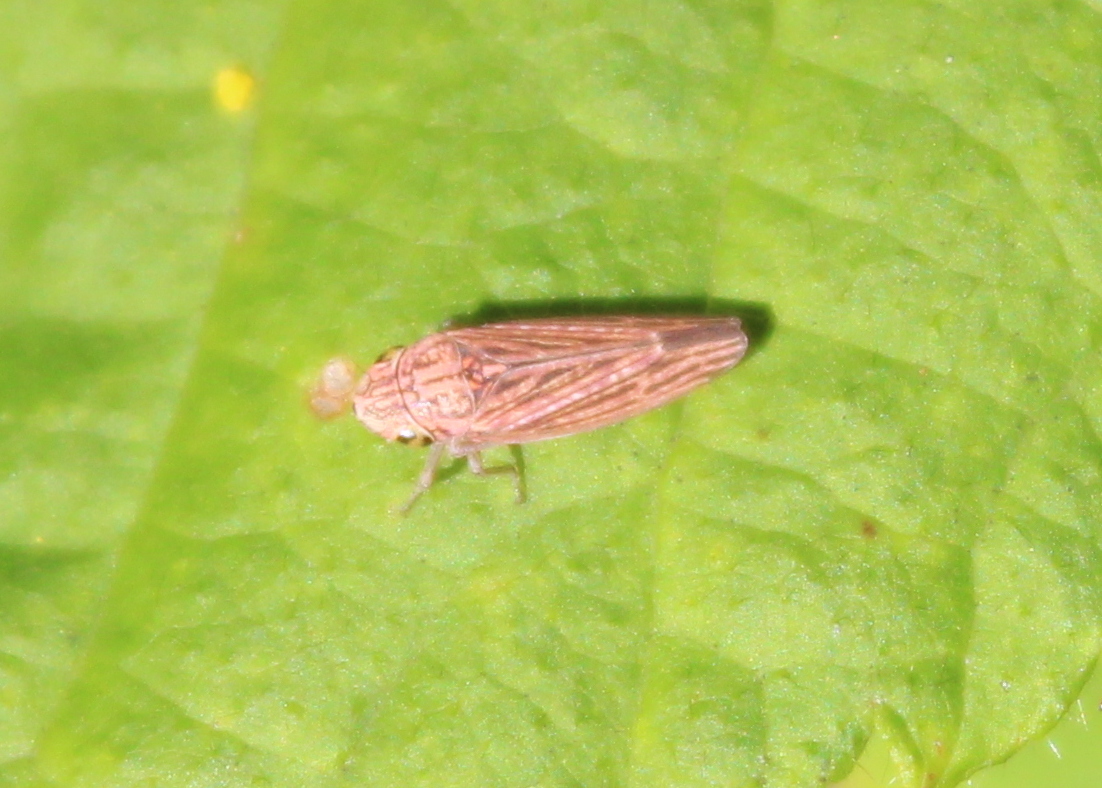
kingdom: Animalia
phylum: Arthropoda
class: Insecta
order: Hemiptera
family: Cicadellidae
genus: Neokolla
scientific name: Neokolla hieroglyphica
